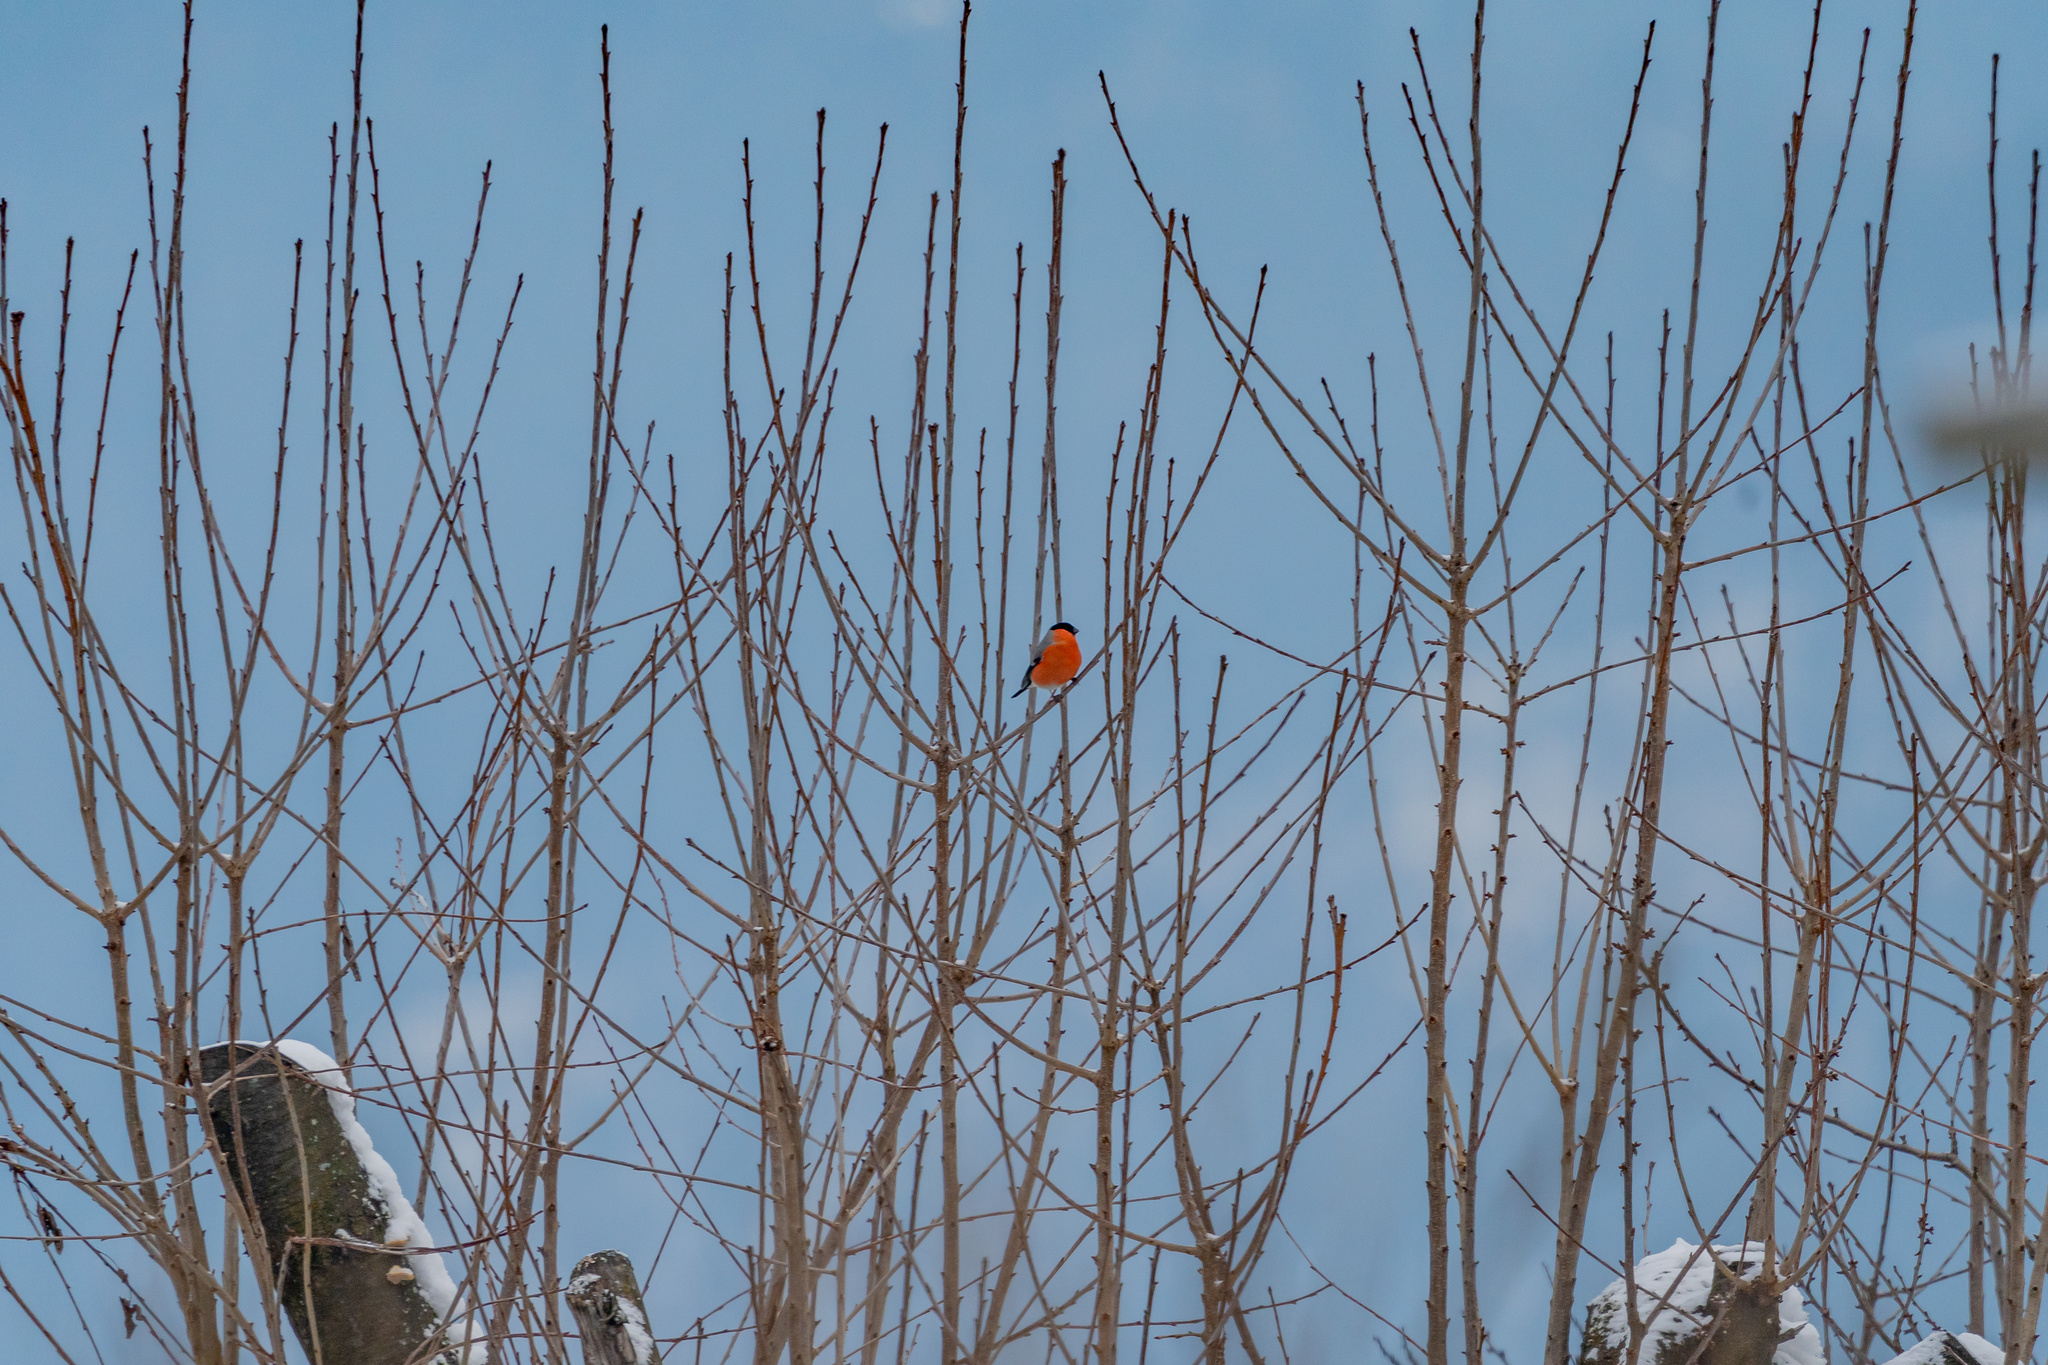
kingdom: Animalia
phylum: Chordata
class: Aves
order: Passeriformes
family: Fringillidae
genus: Pyrrhula
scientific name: Pyrrhula pyrrhula
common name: Eurasian bullfinch
